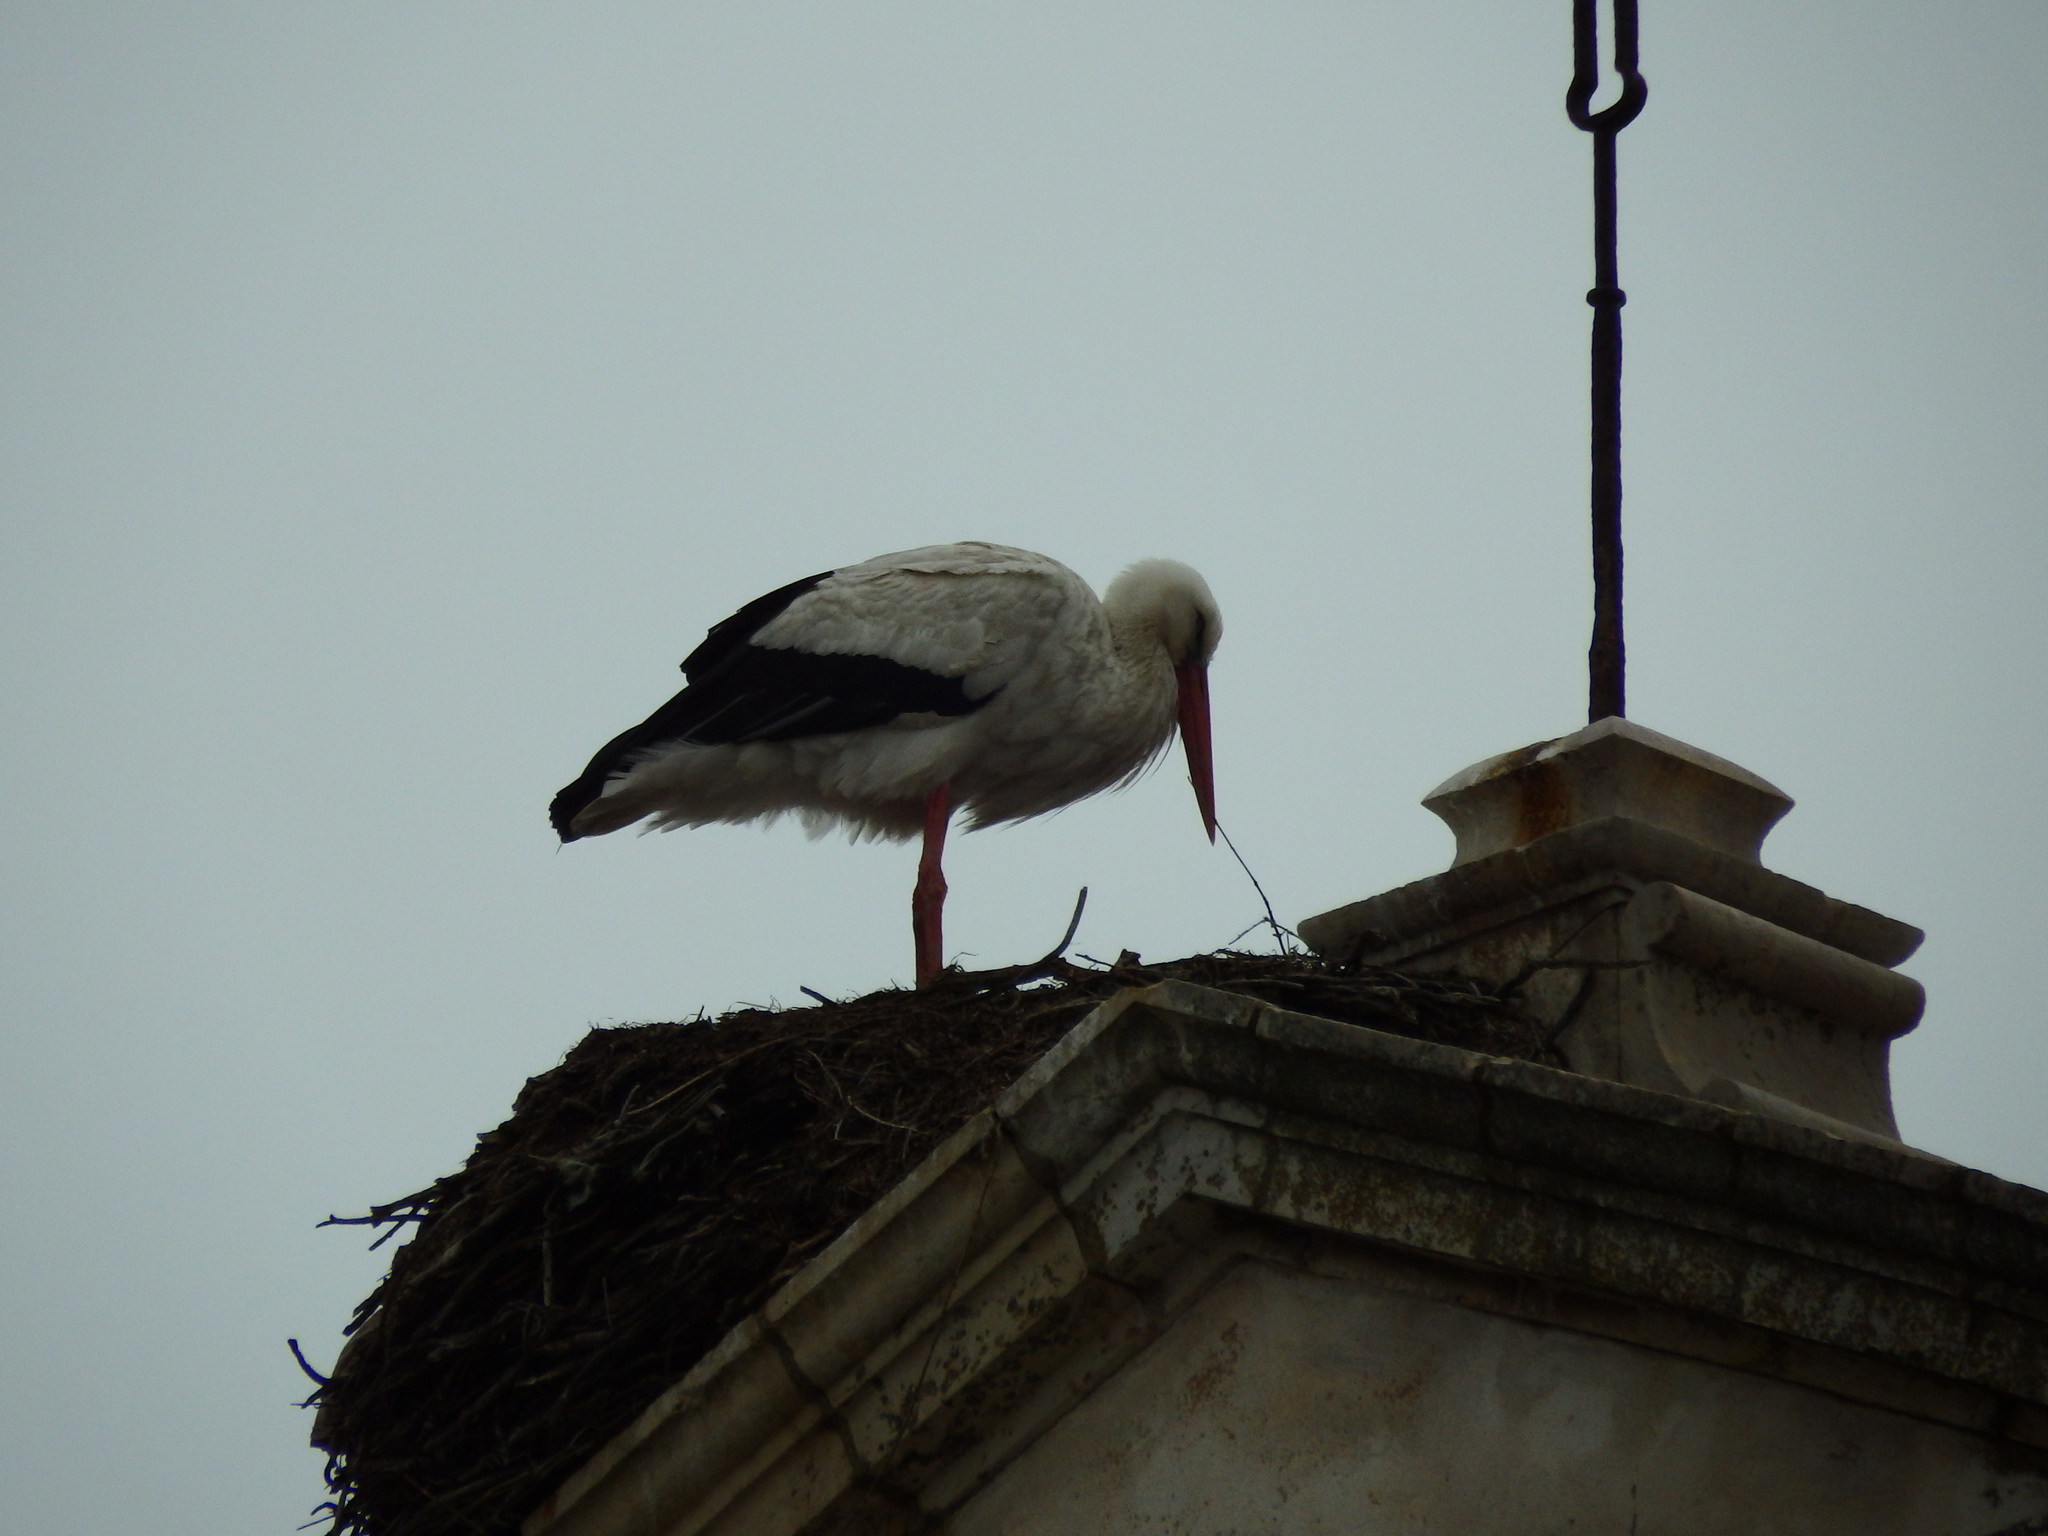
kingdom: Animalia
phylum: Chordata
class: Aves
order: Ciconiiformes
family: Ciconiidae
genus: Ciconia
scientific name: Ciconia ciconia
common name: White stork
